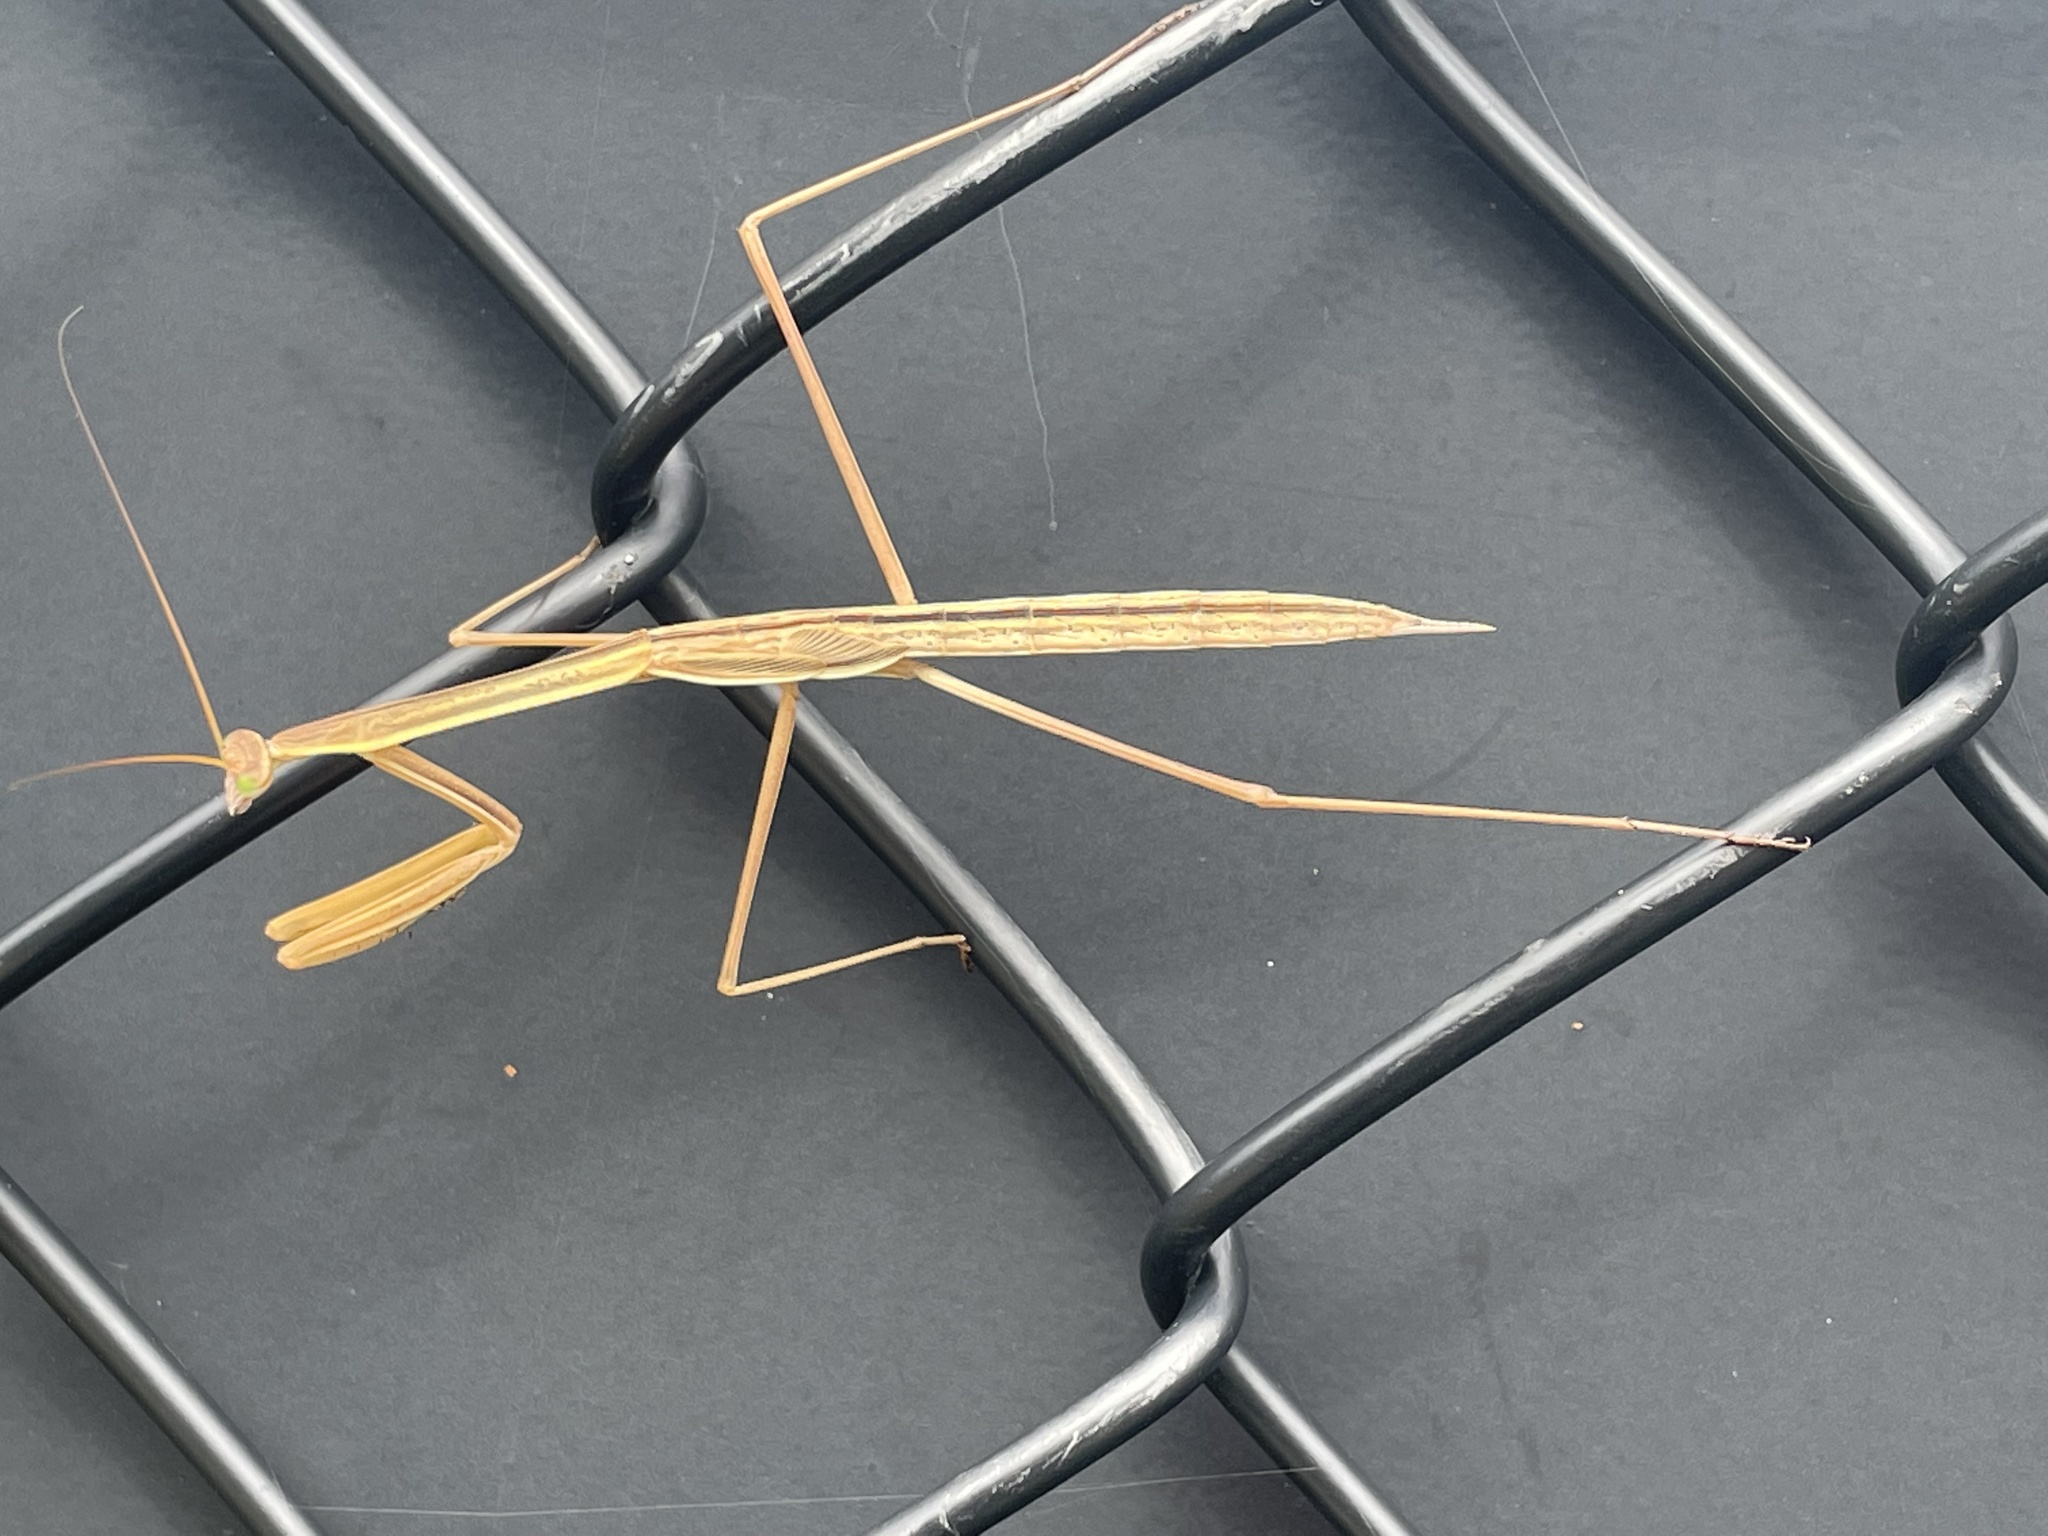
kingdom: Animalia
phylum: Arthropoda
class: Insecta
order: Mantodea
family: Mantidae
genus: Tenodera
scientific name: Tenodera australasiae
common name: Purple-winged mantis
